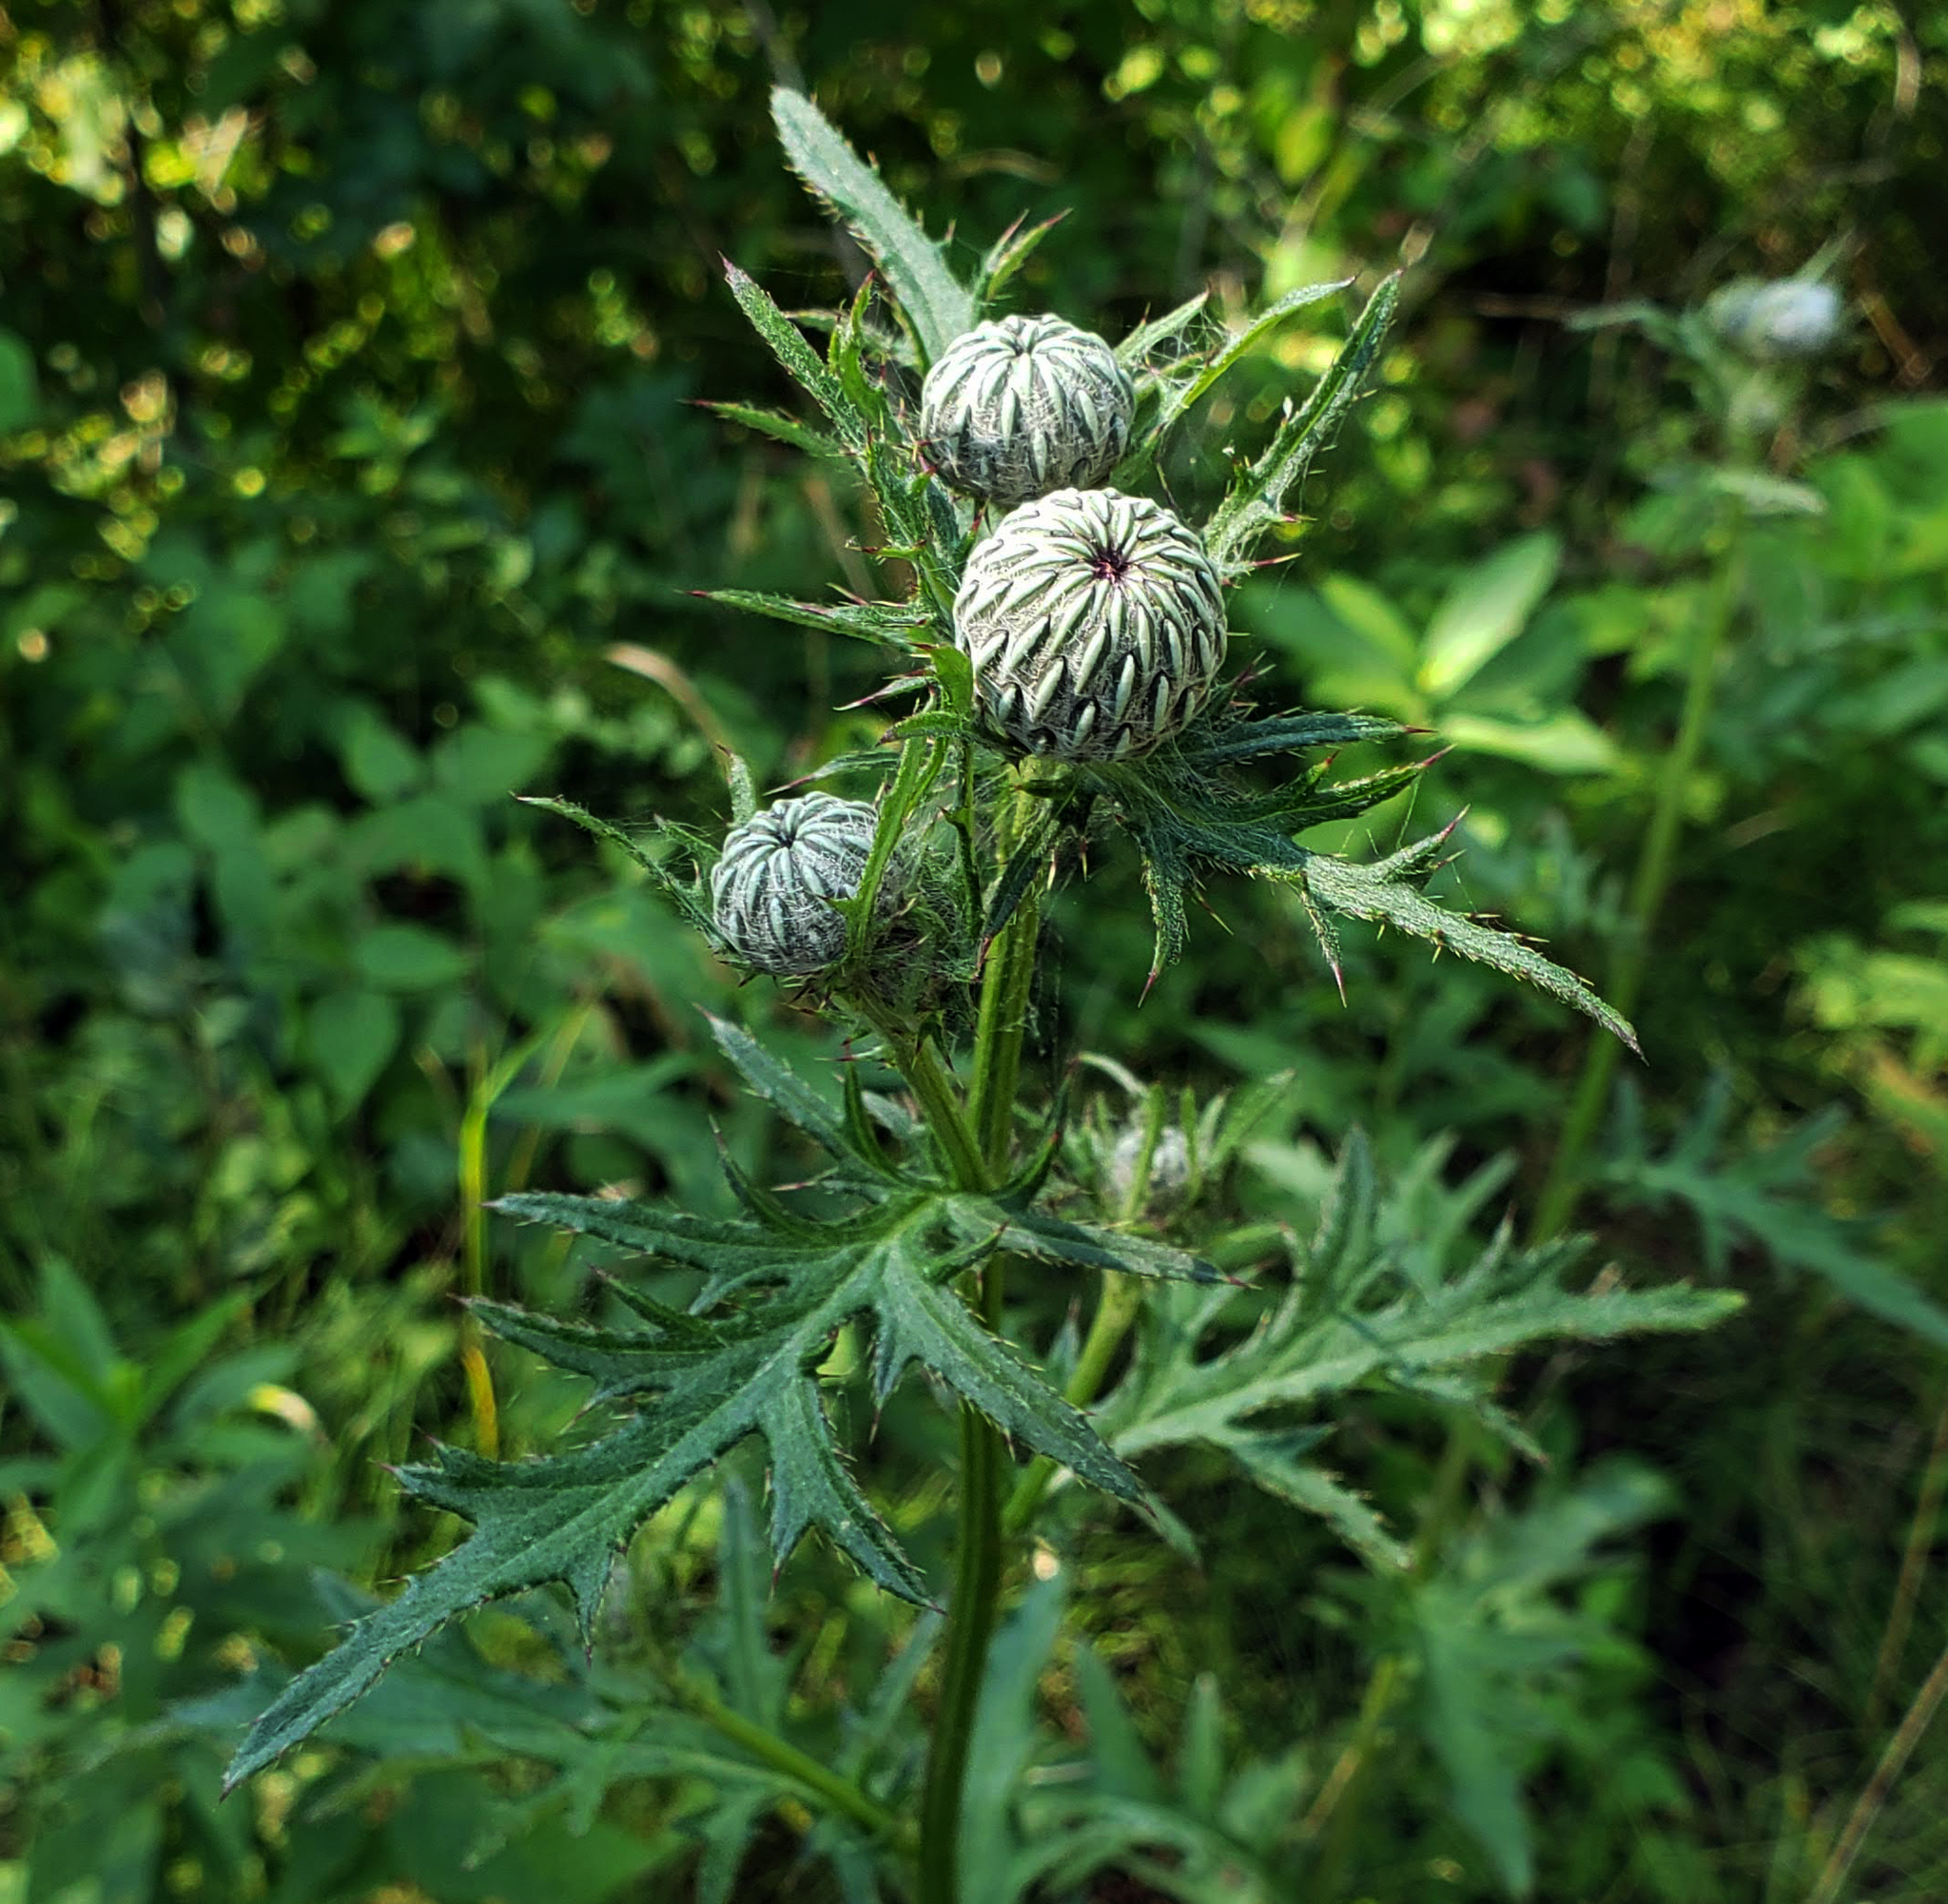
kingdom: Plantae
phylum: Tracheophyta
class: Magnoliopsida
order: Asterales
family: Asteraceae
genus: Cirsium
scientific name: Cirsium muticum
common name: Dunce-nettle
